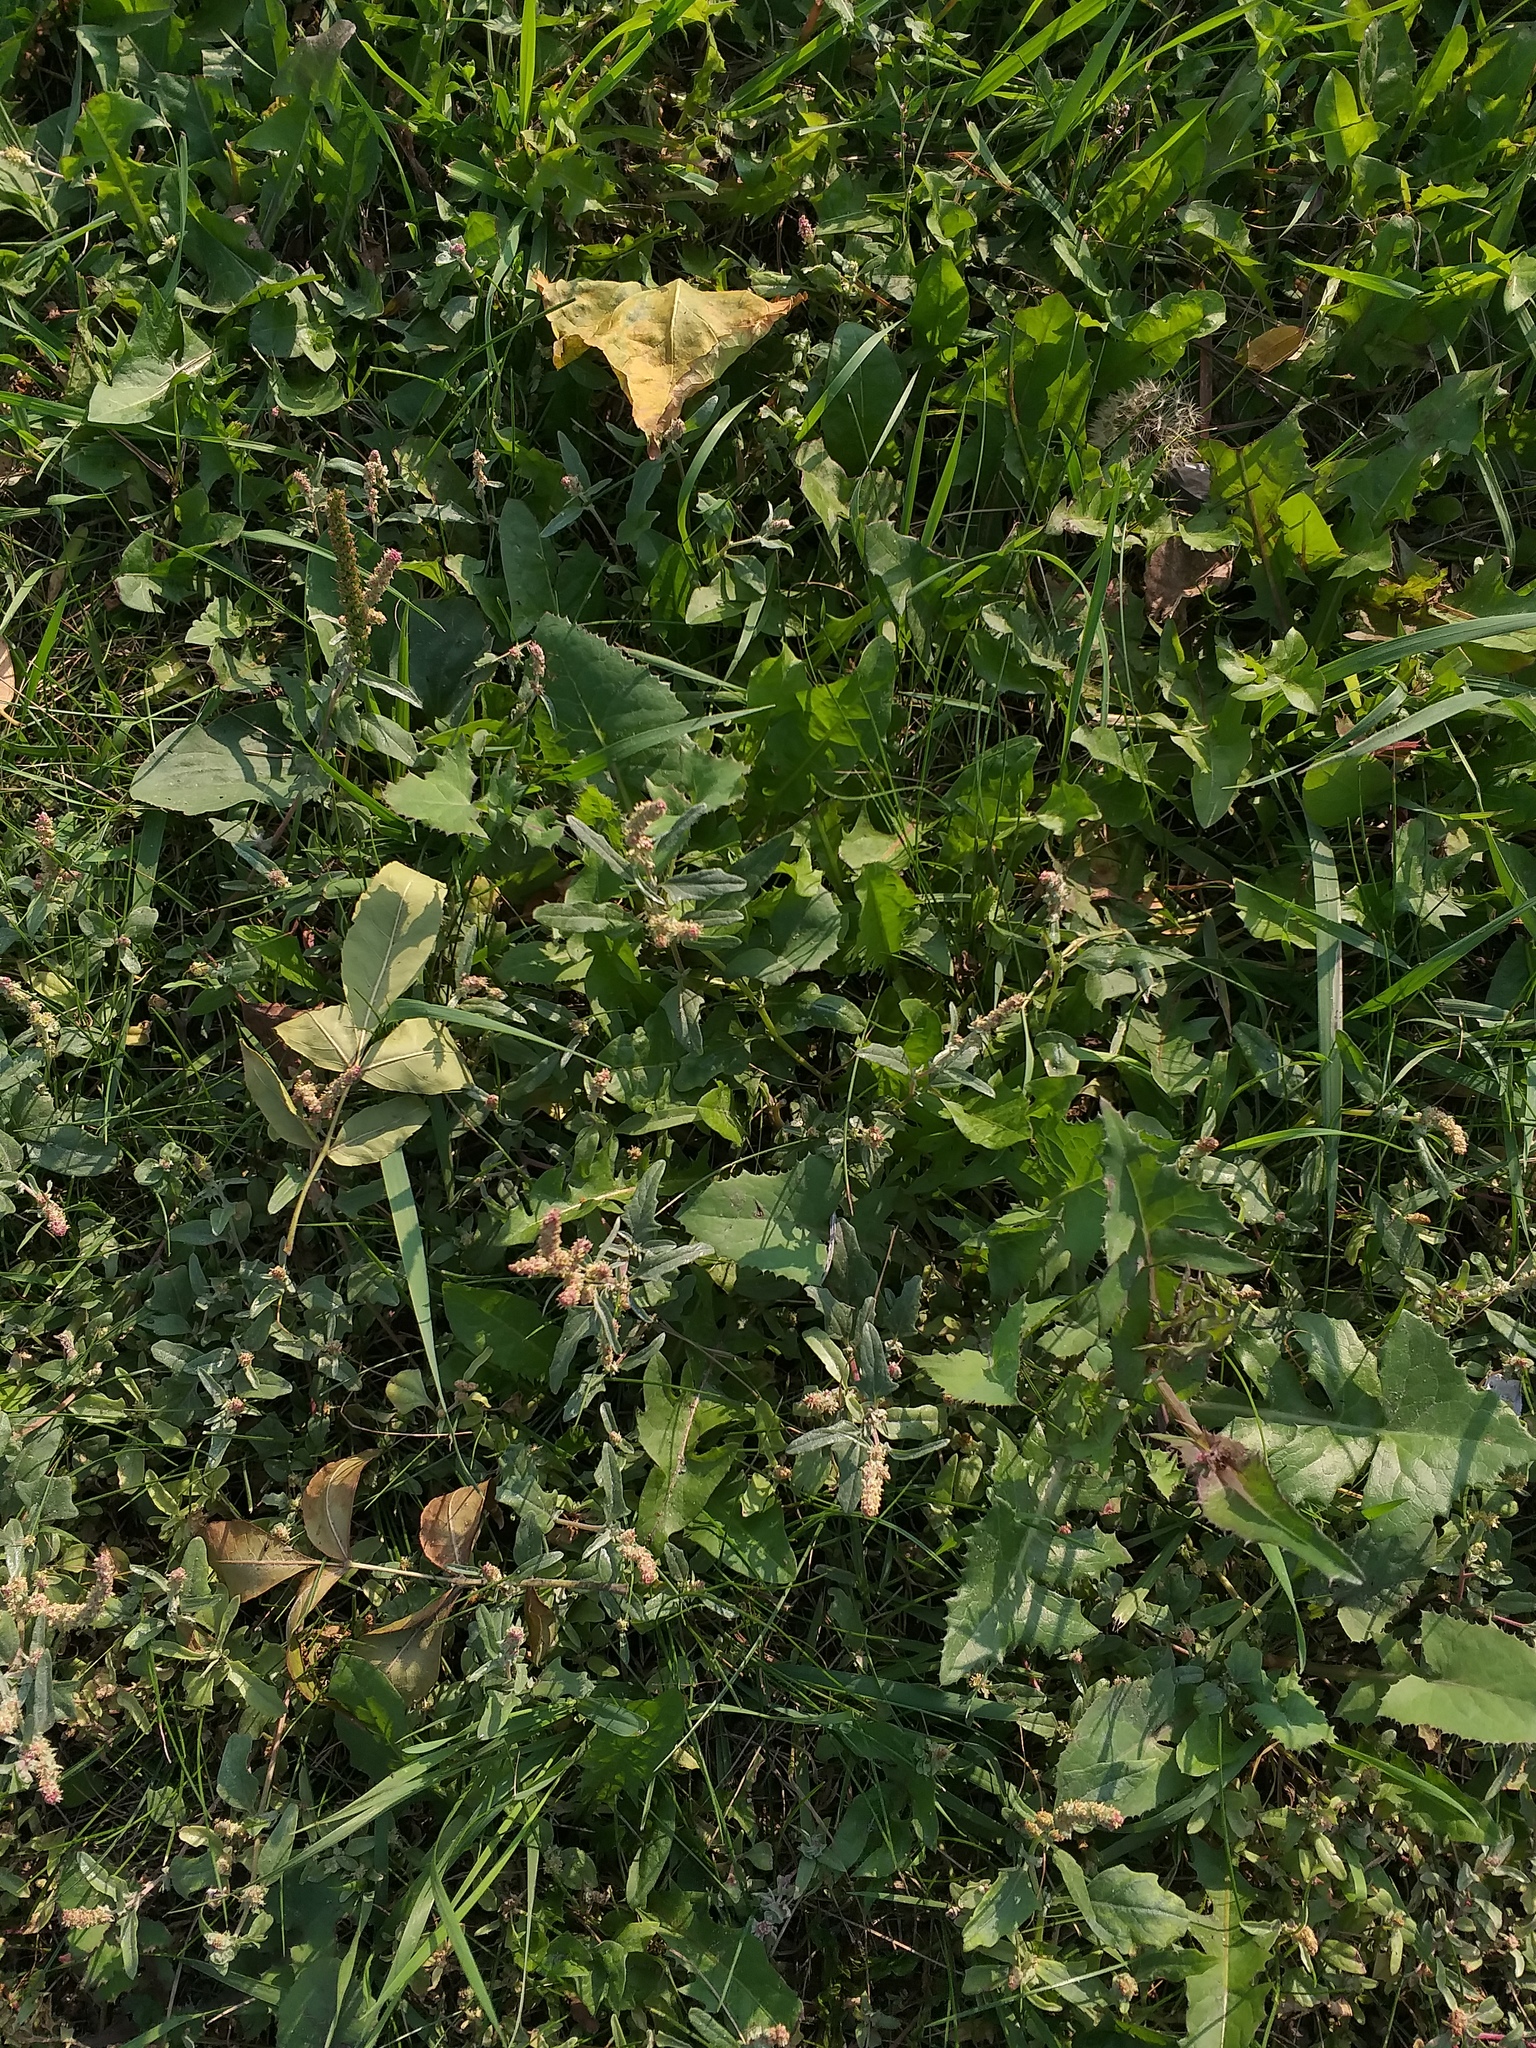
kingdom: Plantae
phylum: Tracheophyta
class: Magnoliopsida
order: Caryophyllales
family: Amaranthaceae
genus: Atriplex
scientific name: Atriplex tatarica
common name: Tatarian orache
